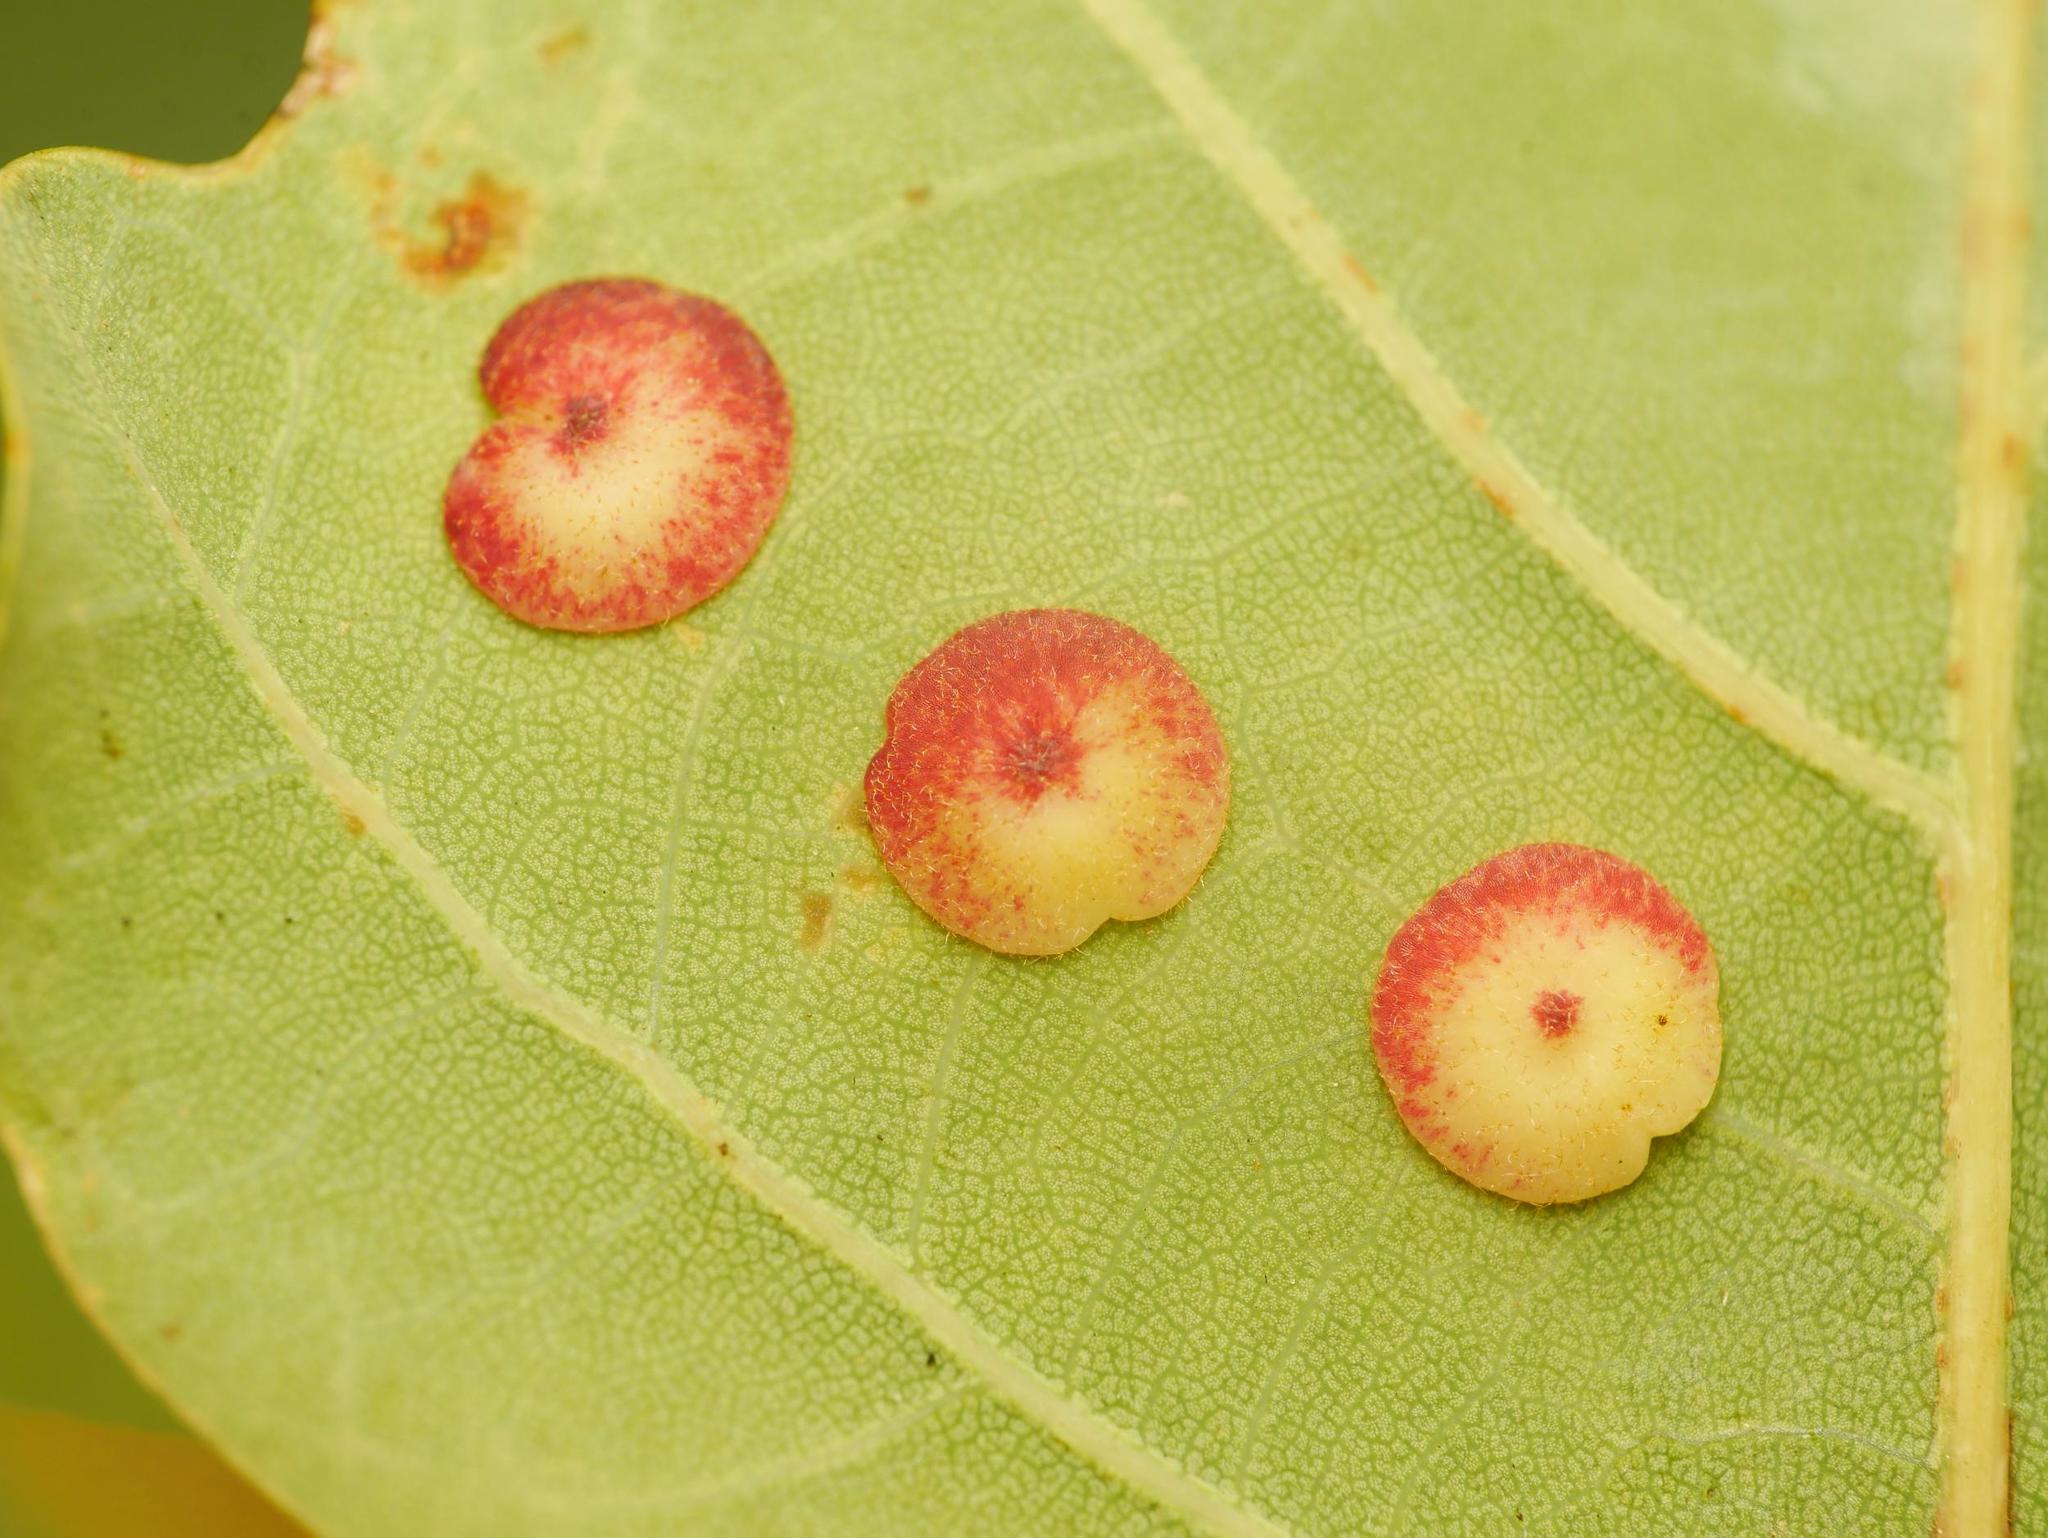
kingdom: Animalia
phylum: Arthropoda
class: Insecta
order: Hymenoptera
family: Cynipidae
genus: Neuroterus
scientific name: Neuroterus quercusbaccarum
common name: Common spangle gall
